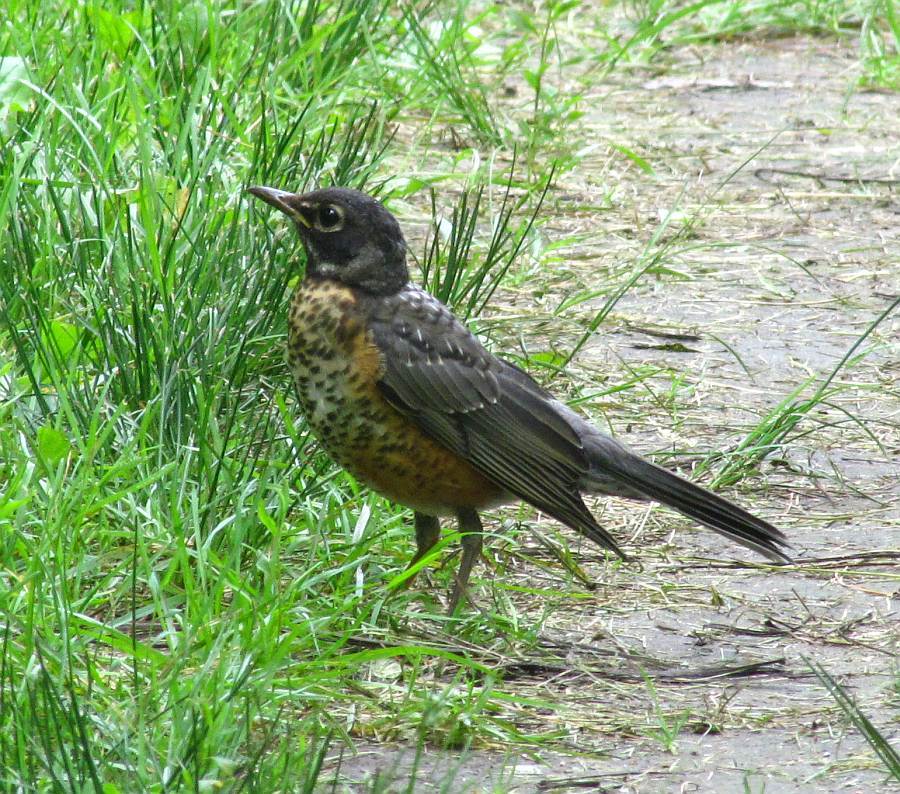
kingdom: Animalia
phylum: Chordata
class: Aves
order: Passeriformes
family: Turdidae
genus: Turdus
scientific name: Turdus migratorius
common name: American robin
